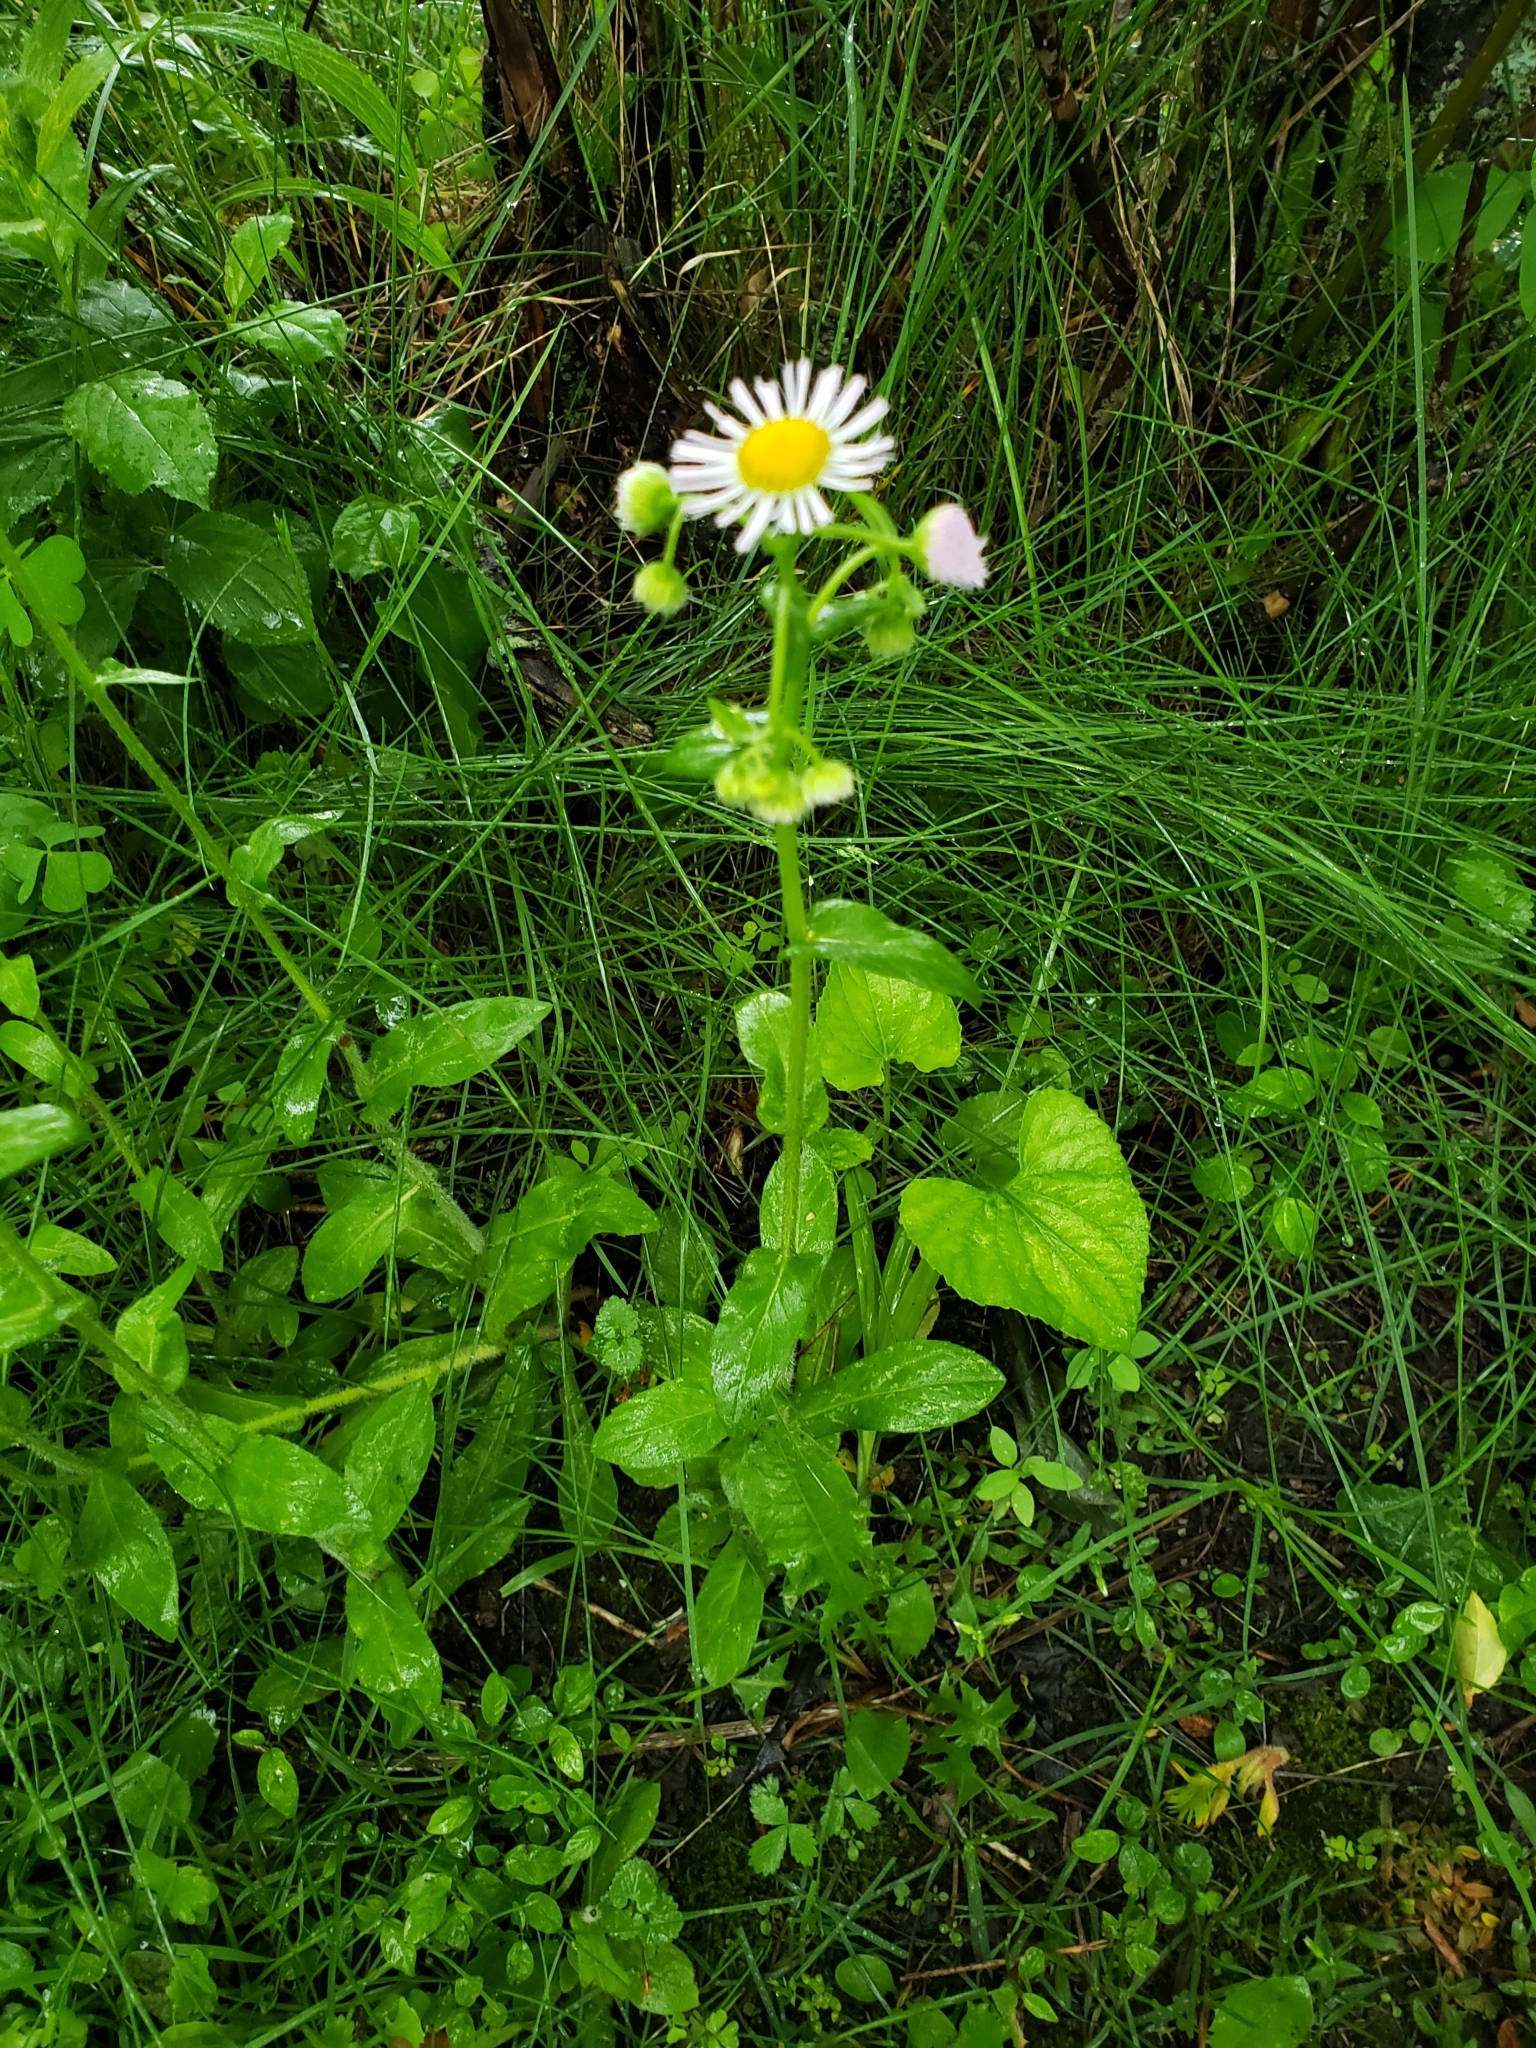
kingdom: Plantae
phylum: Tracheophyta
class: Magnoliopsida
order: Asterales
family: Asteraceae
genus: Erigeron
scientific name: Erigeron philadelphicus
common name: Robin's-plantain
